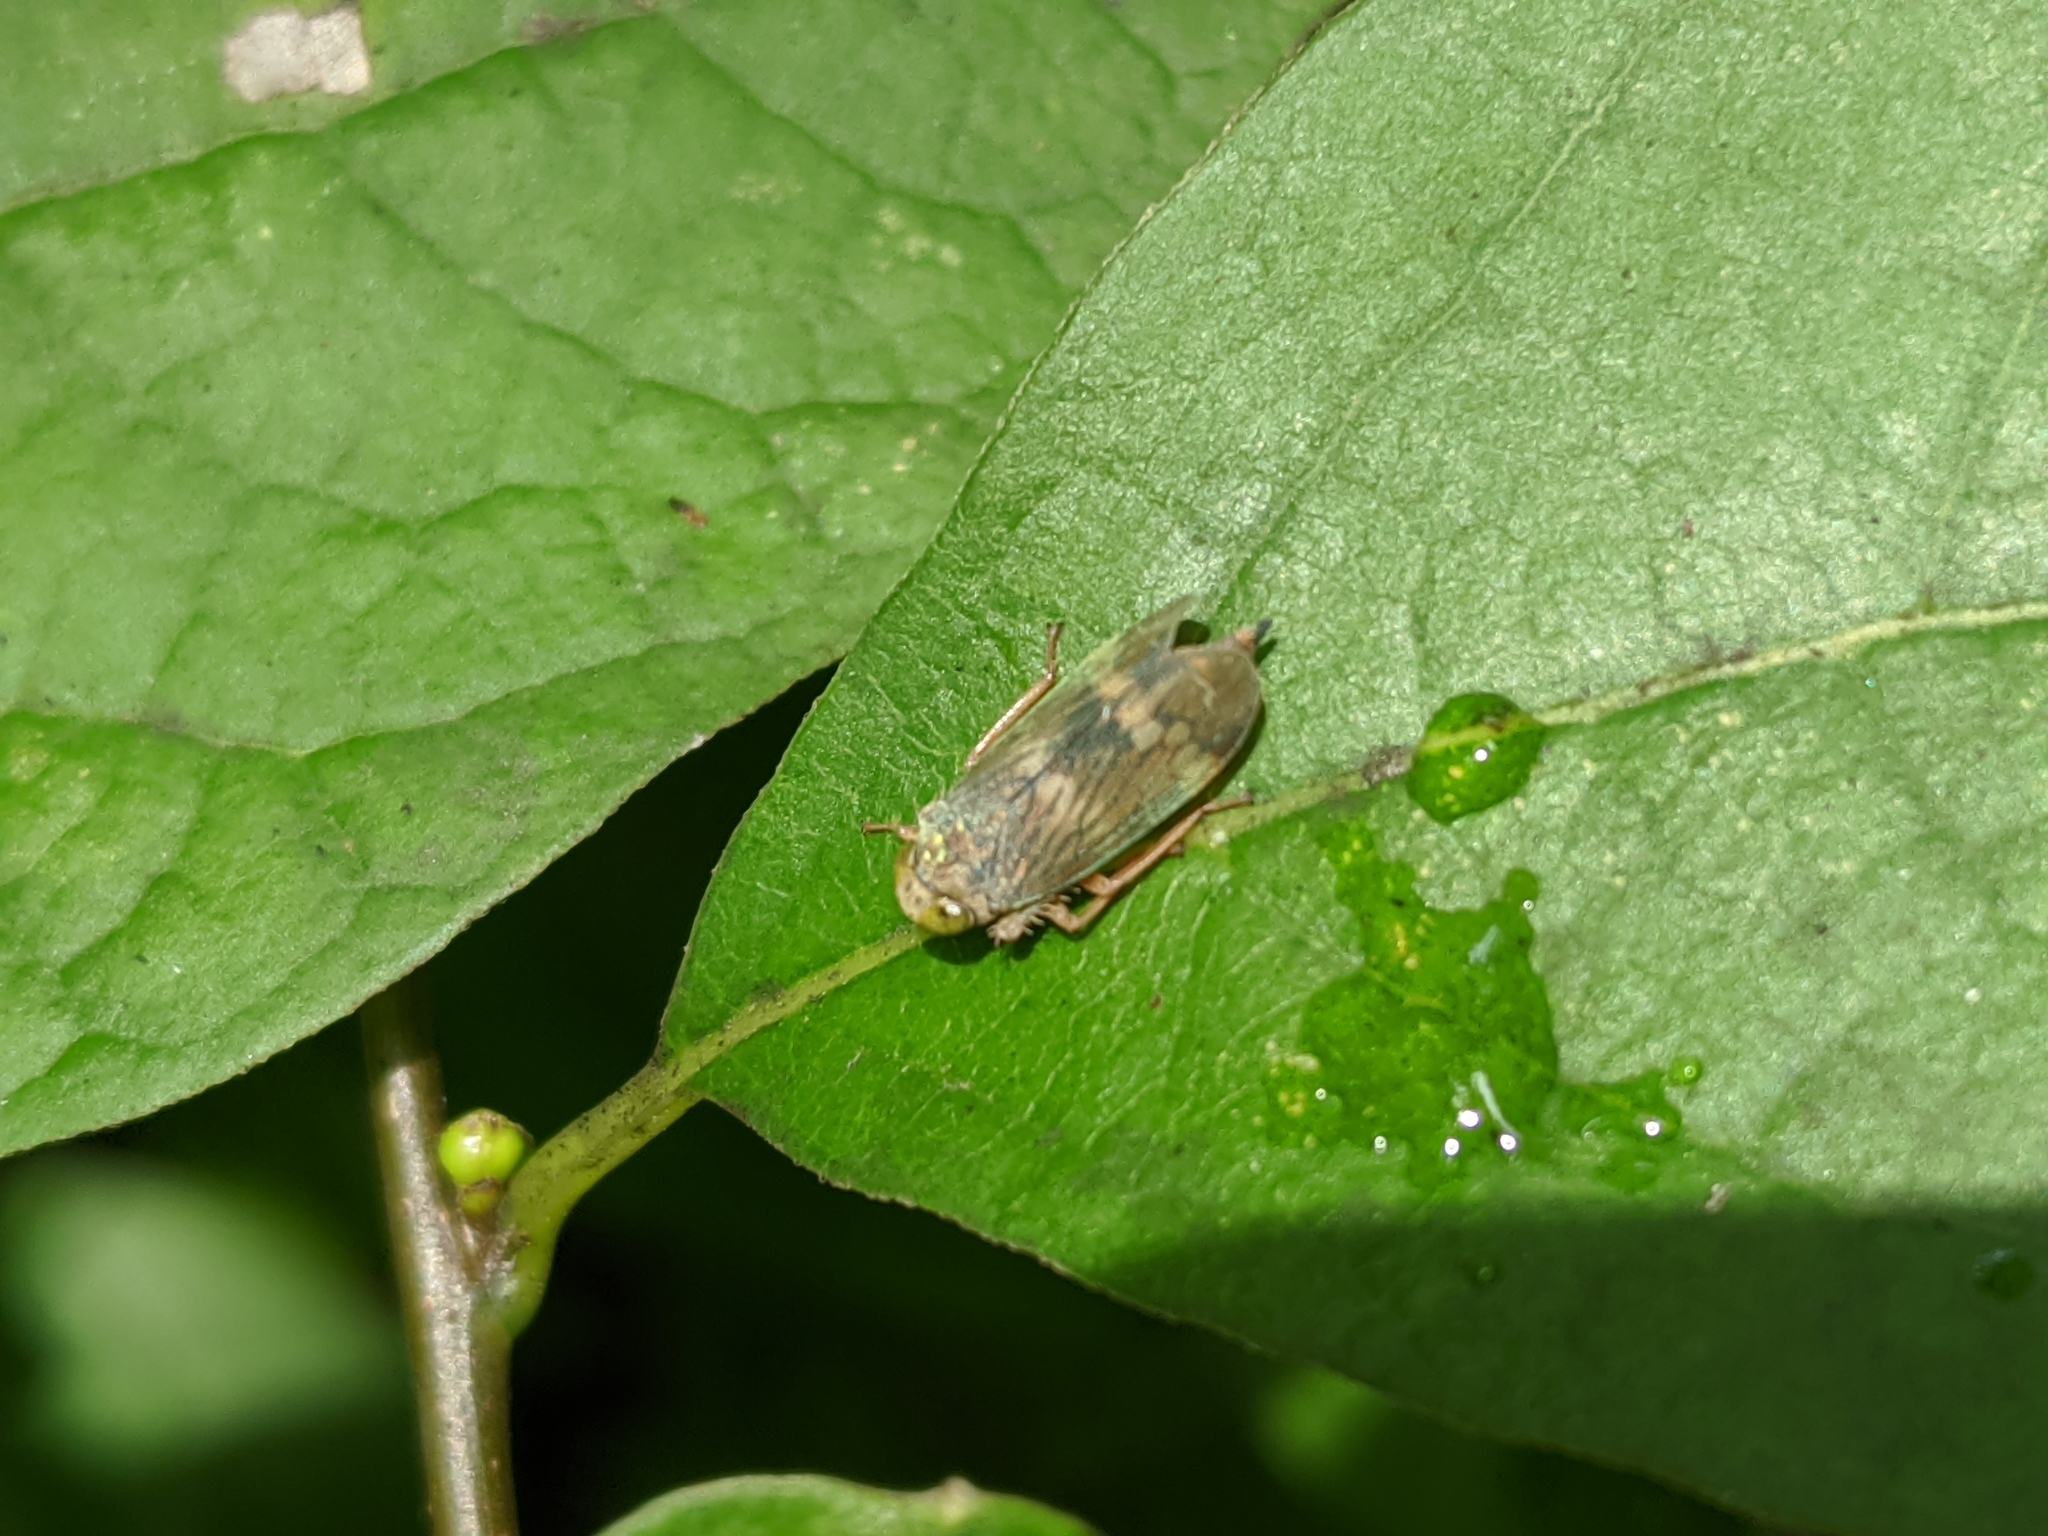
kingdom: Animalia
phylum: Arthropoda
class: Insecta
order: Hemiptera
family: Cicadellidae
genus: Jikradia
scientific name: Jikradia olitoria
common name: Coppery leafhopper
